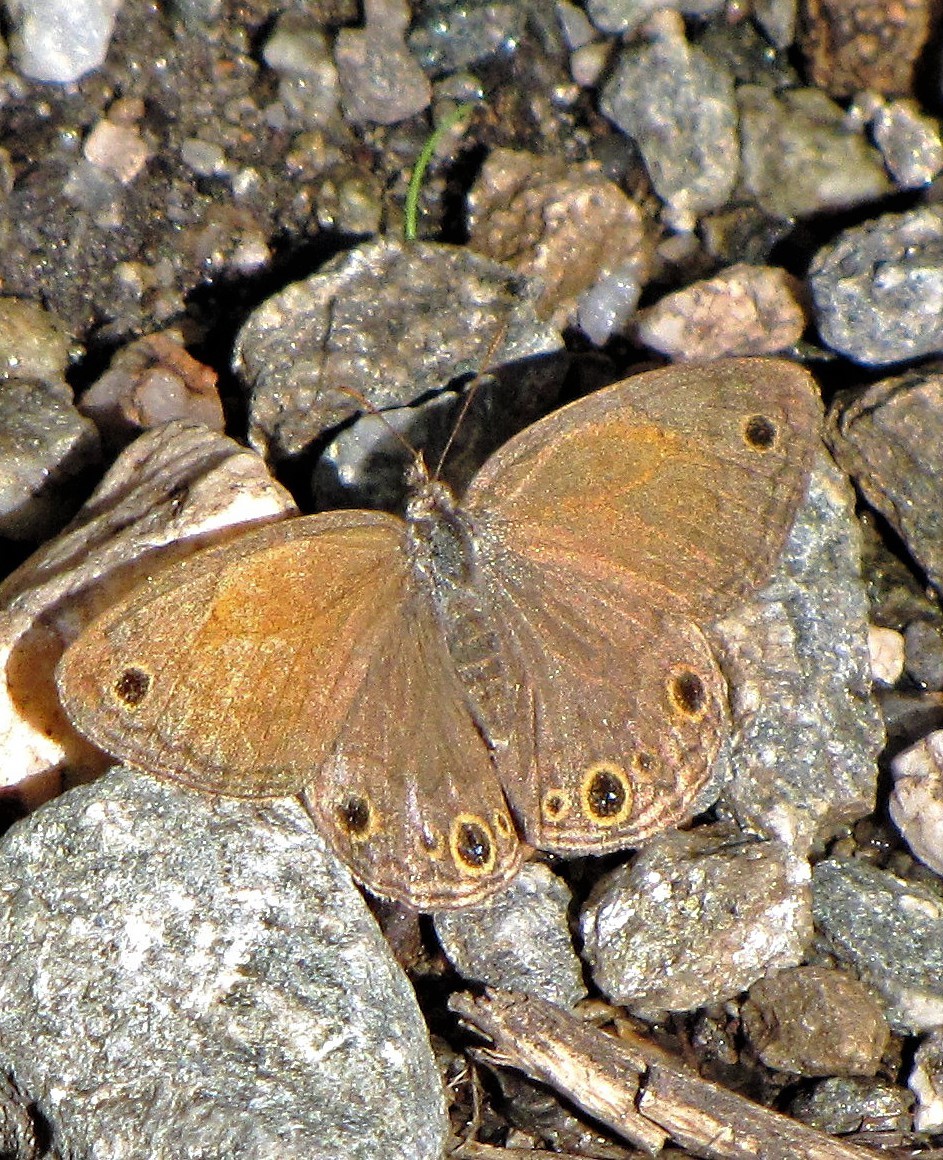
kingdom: Animalia
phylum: Arthropoda
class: Insecta
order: Lepidoptera
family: Nymphalidae
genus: Pharneuptychia
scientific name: Pharneuptychia phares
